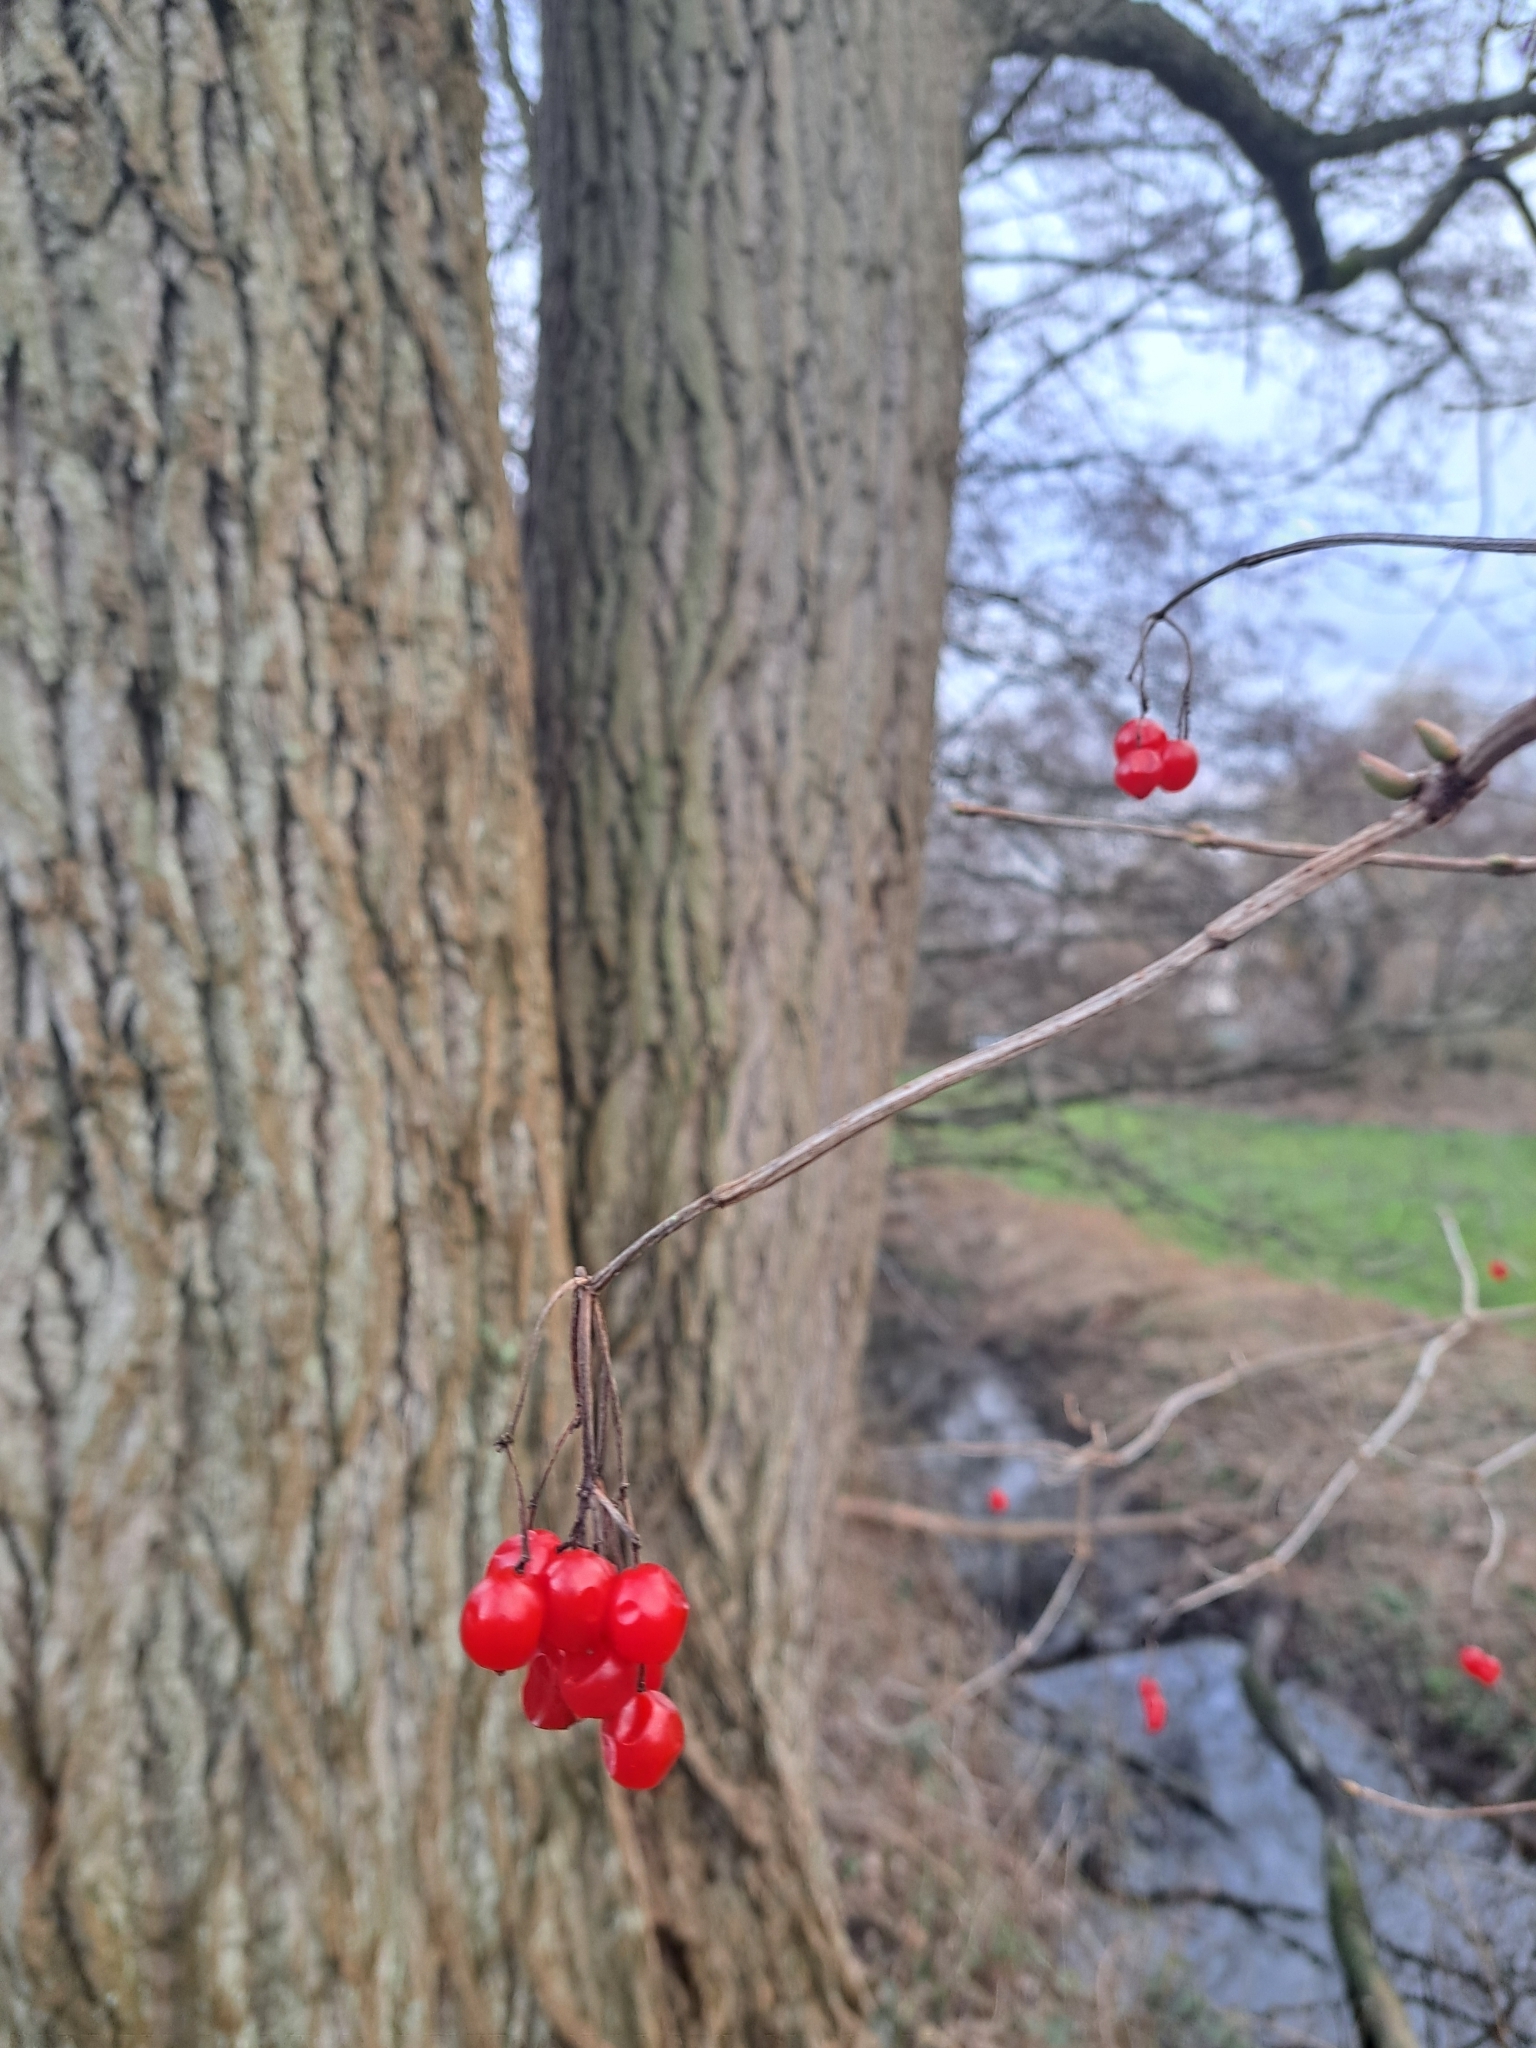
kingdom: Plantae
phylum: Tracheophyta
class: Magnoliopsida
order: Dipsacales
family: Viburnaceae
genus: Viburnum
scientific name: Viburnum opulus
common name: Guelder-rose
